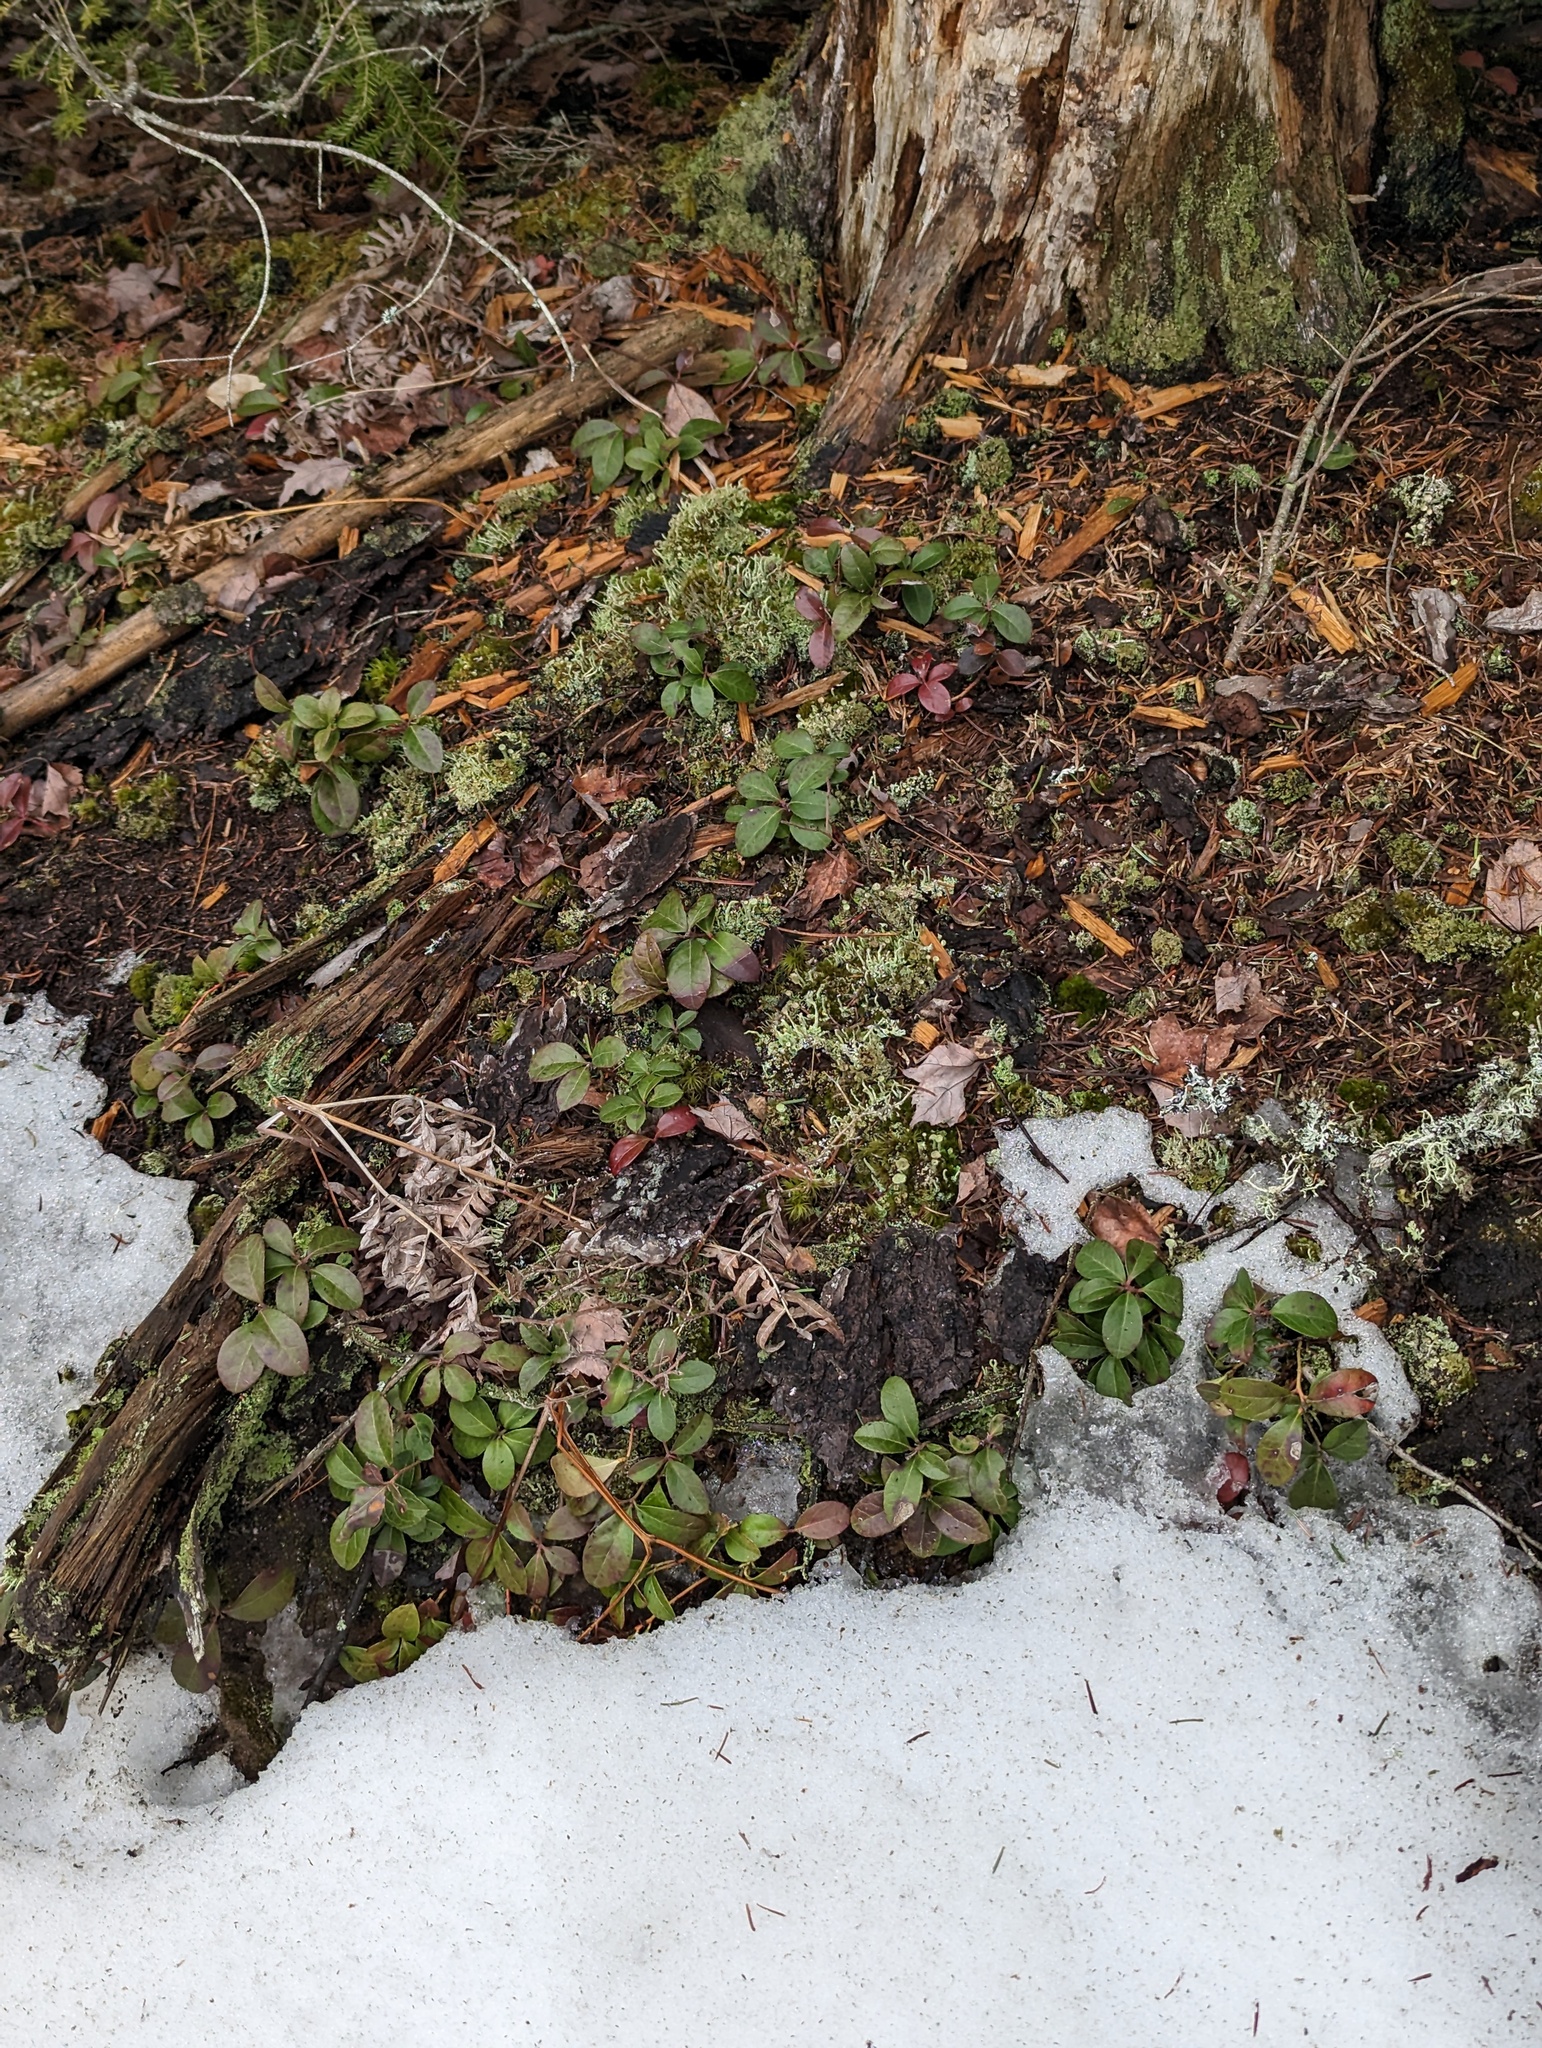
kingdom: Plantae
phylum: Tracheophyta
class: Magnoliopsida
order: Ericales
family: Ericaceae
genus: Gaultheria
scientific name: Gaultheria procumbens
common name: Checkerberry
